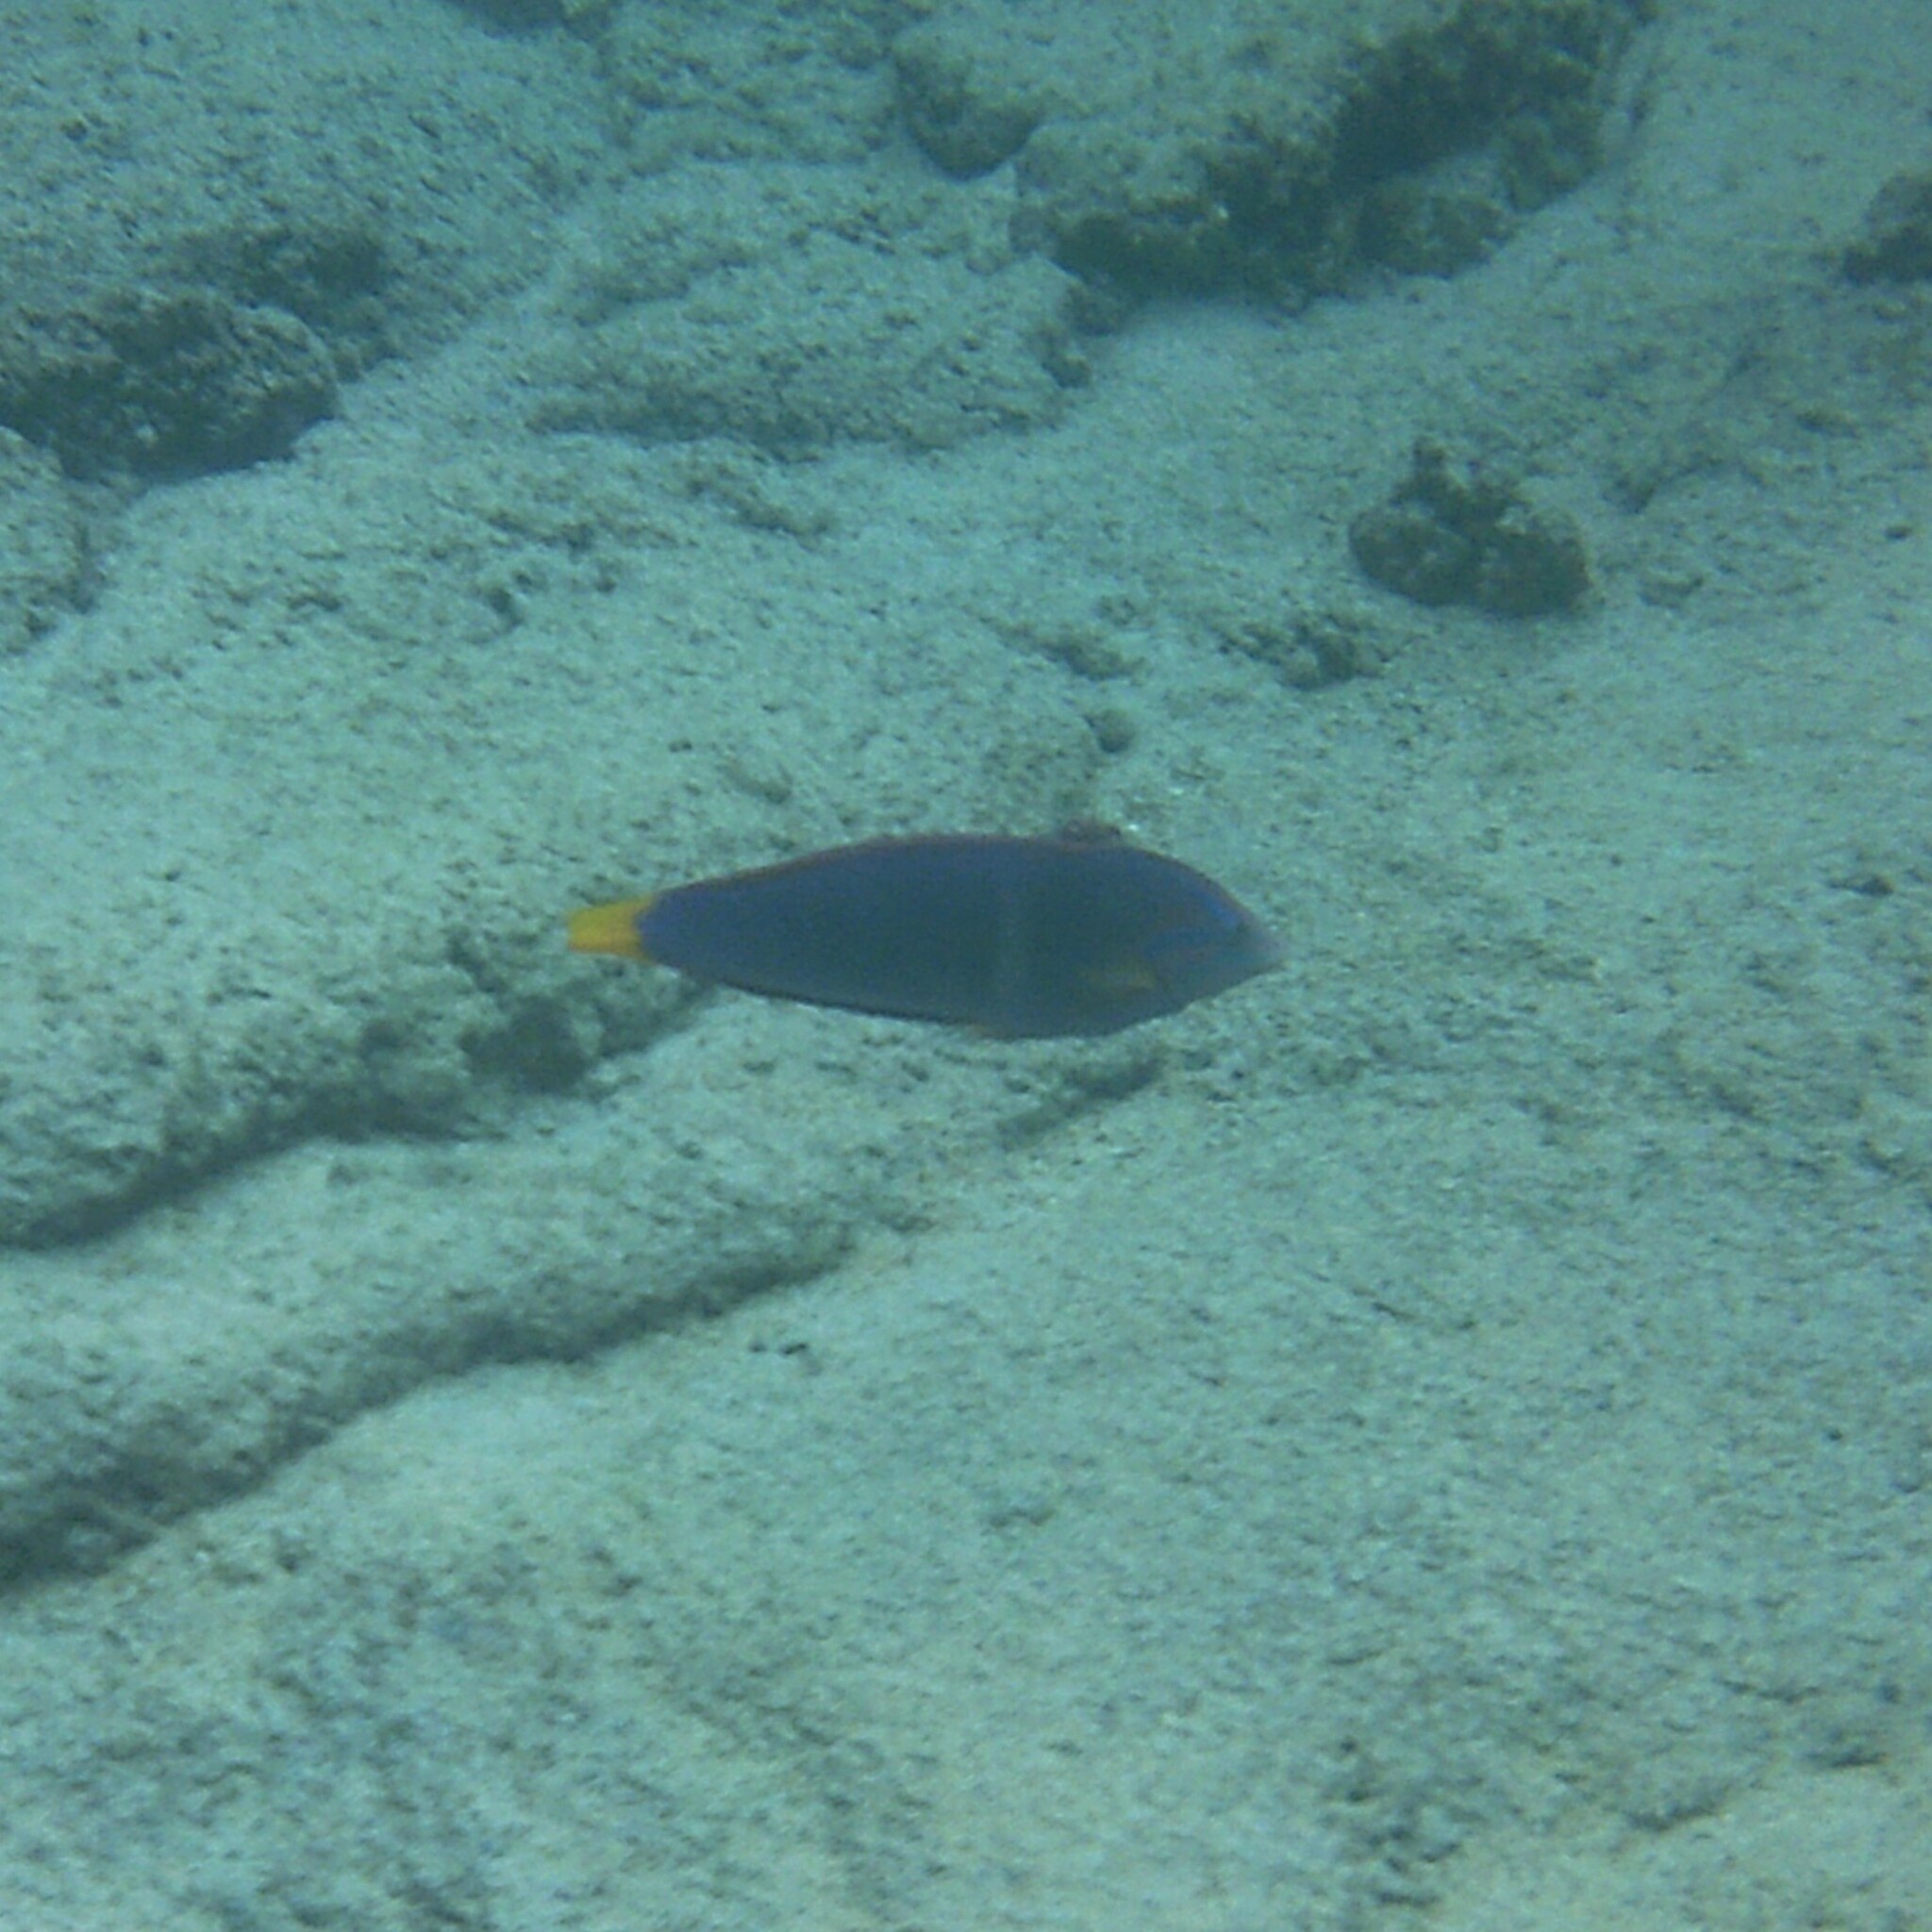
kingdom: Animalia
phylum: Chordata
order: Perciformes
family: Labridae
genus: Coris
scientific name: Coris gaimard
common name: Yellowtail coris
